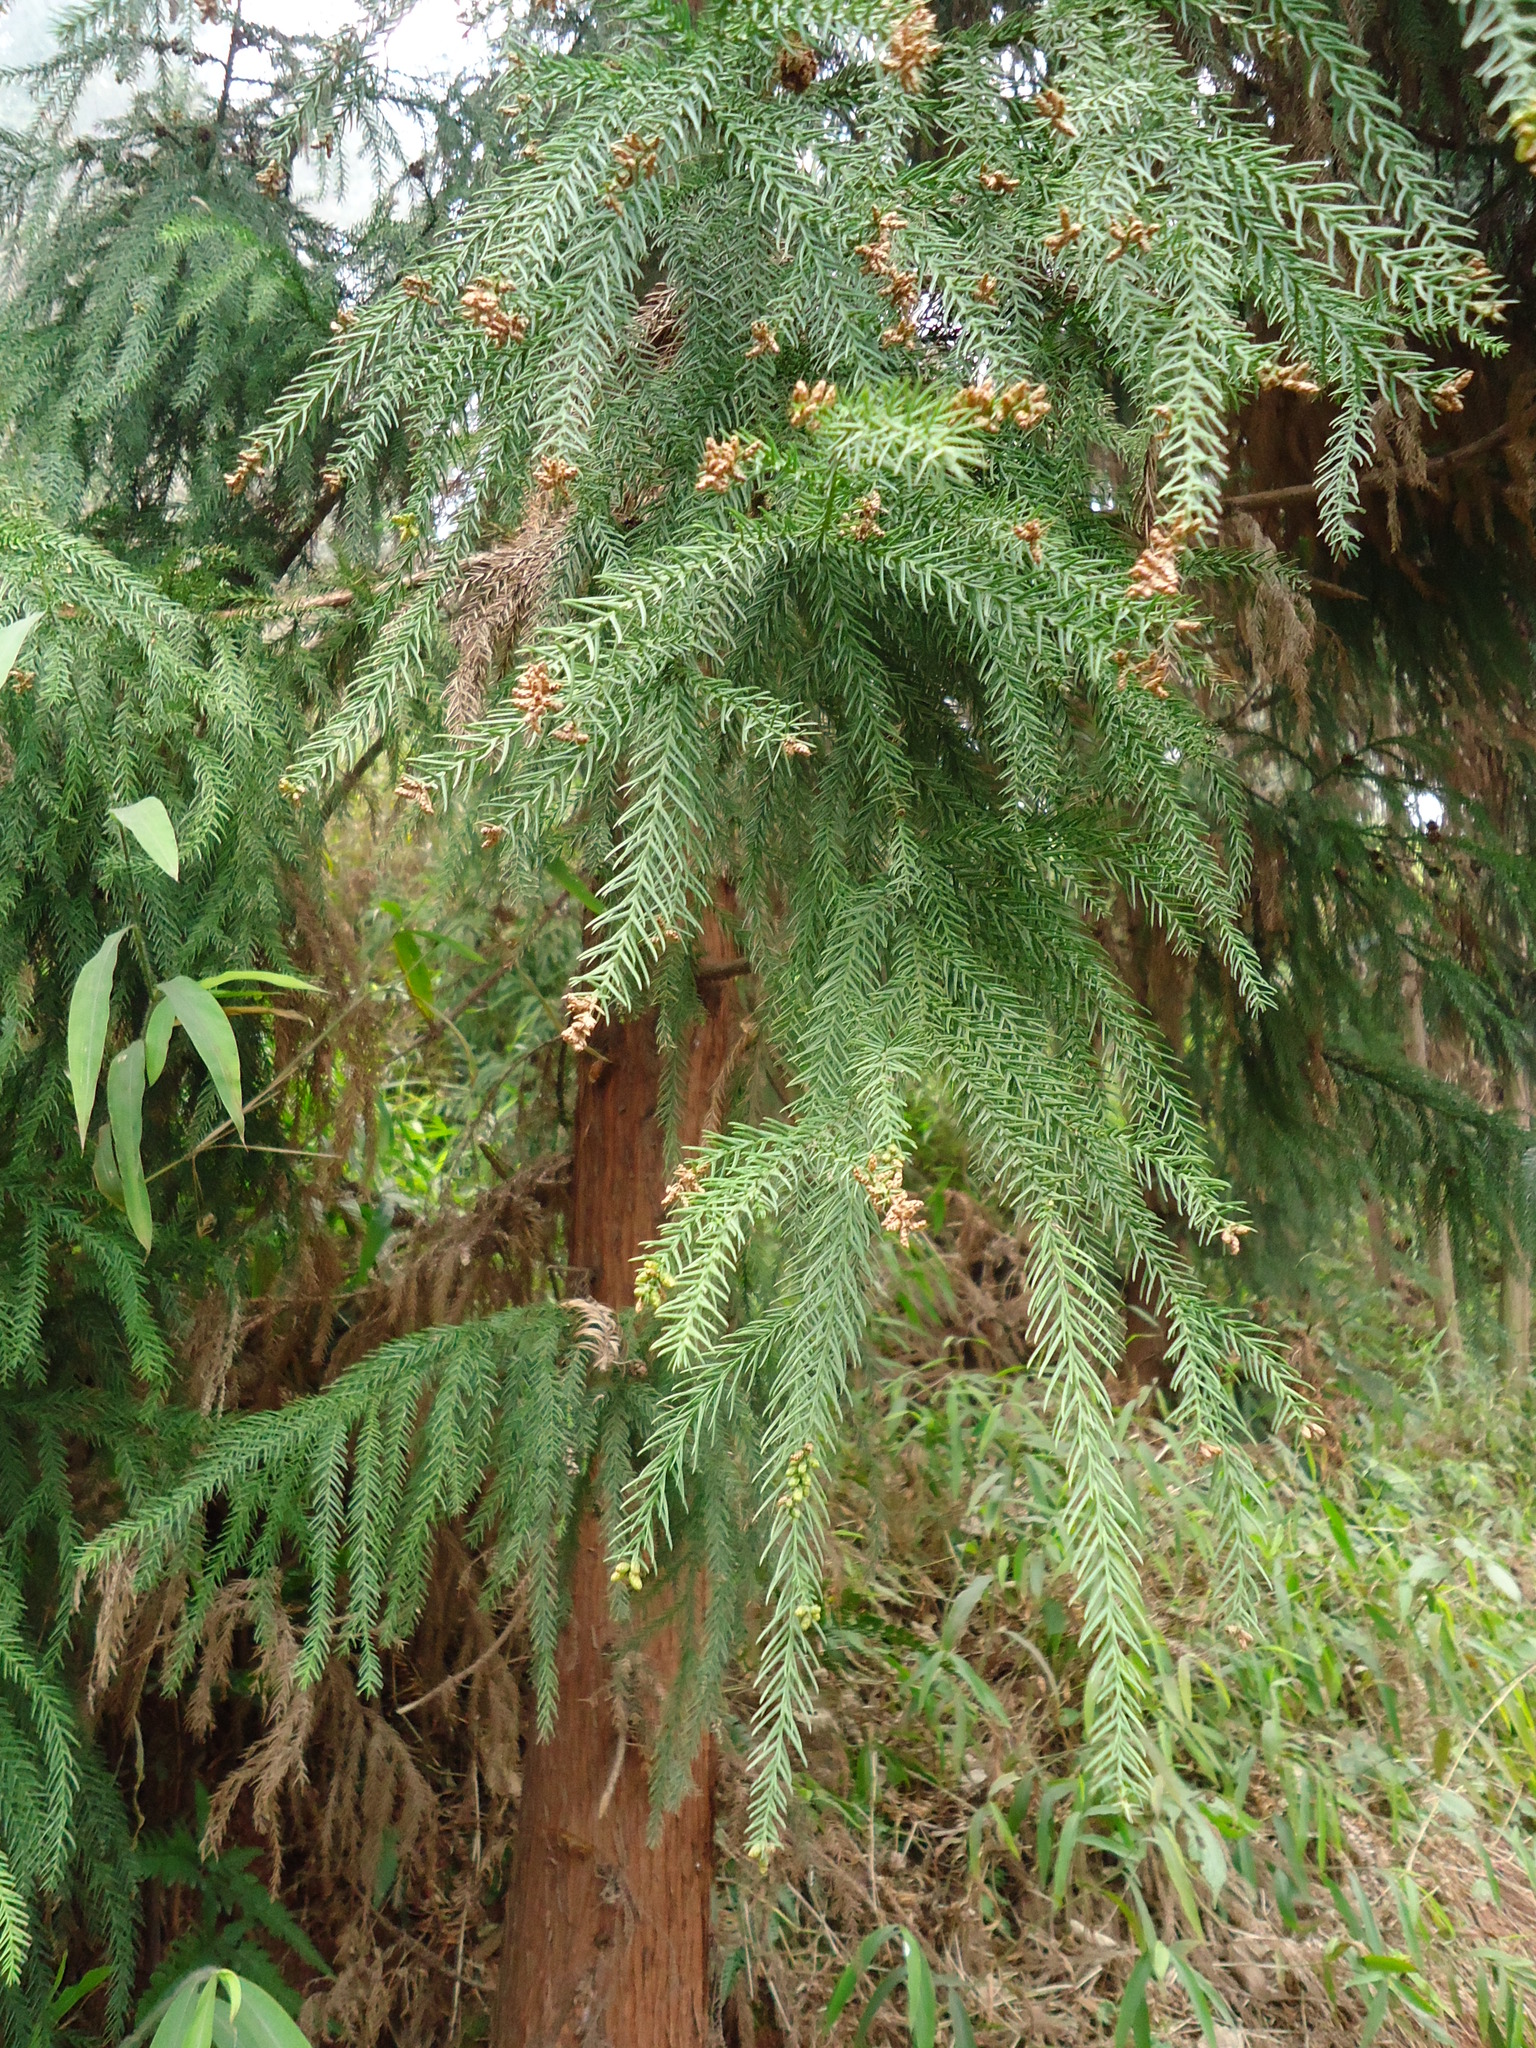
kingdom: Plantae
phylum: Tracheophyta
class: Pinopsida
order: Pinales
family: Cupressaceae
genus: Cryptomeria
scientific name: Cryptomeria japonica
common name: Japanese cedar
